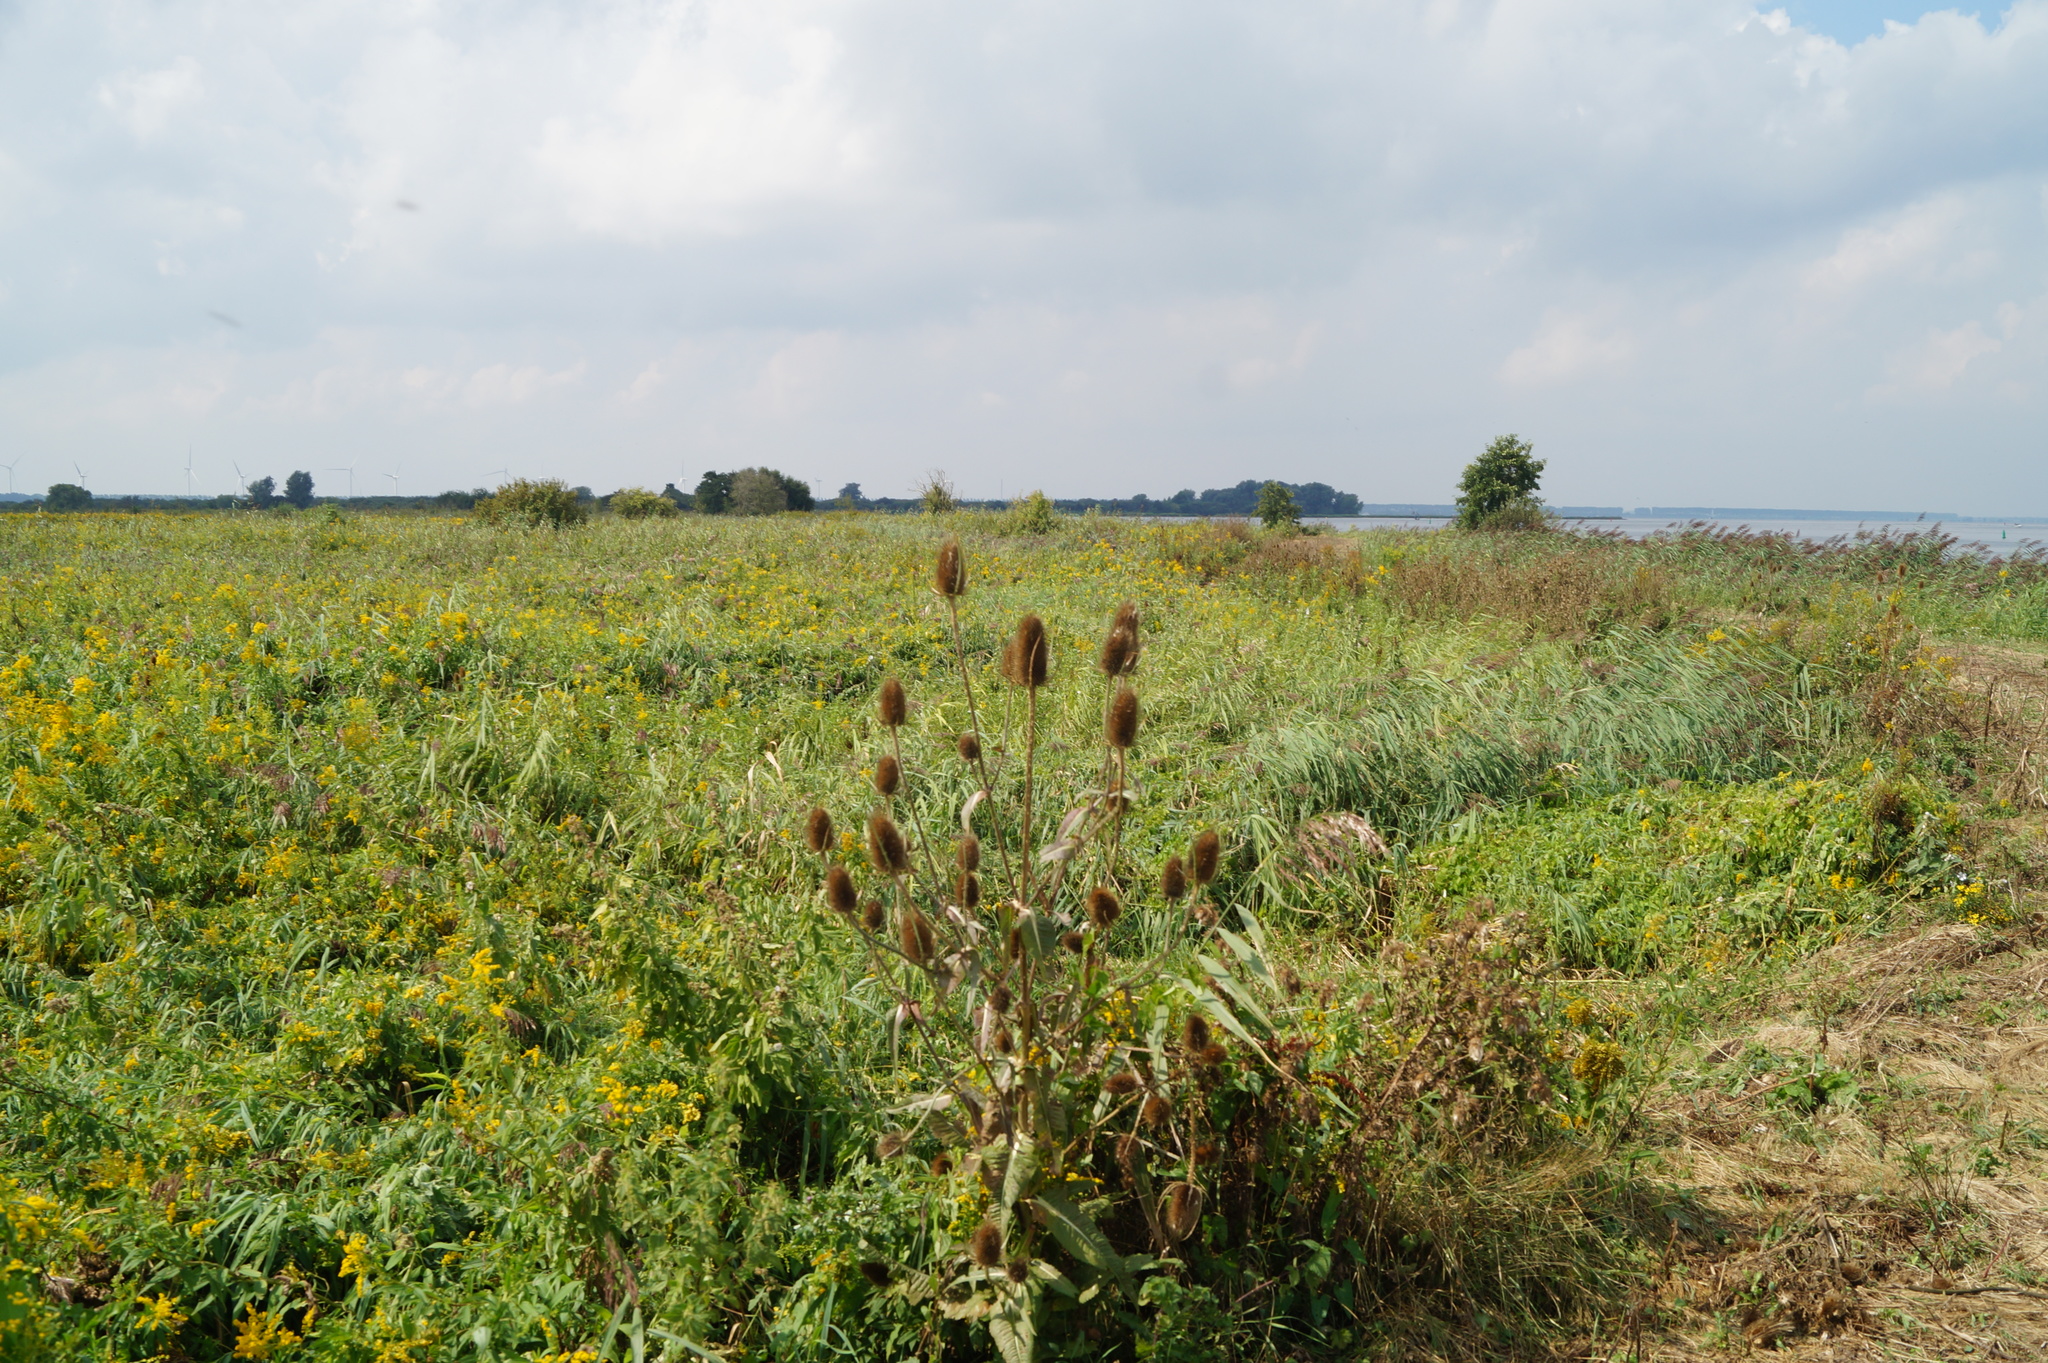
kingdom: Plantae
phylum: Tracheophyta
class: Magnoliopsida
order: Dipsacales
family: Caprifoliaceae
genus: Dipsacus
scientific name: Dipsacus fullonum
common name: Teasel
